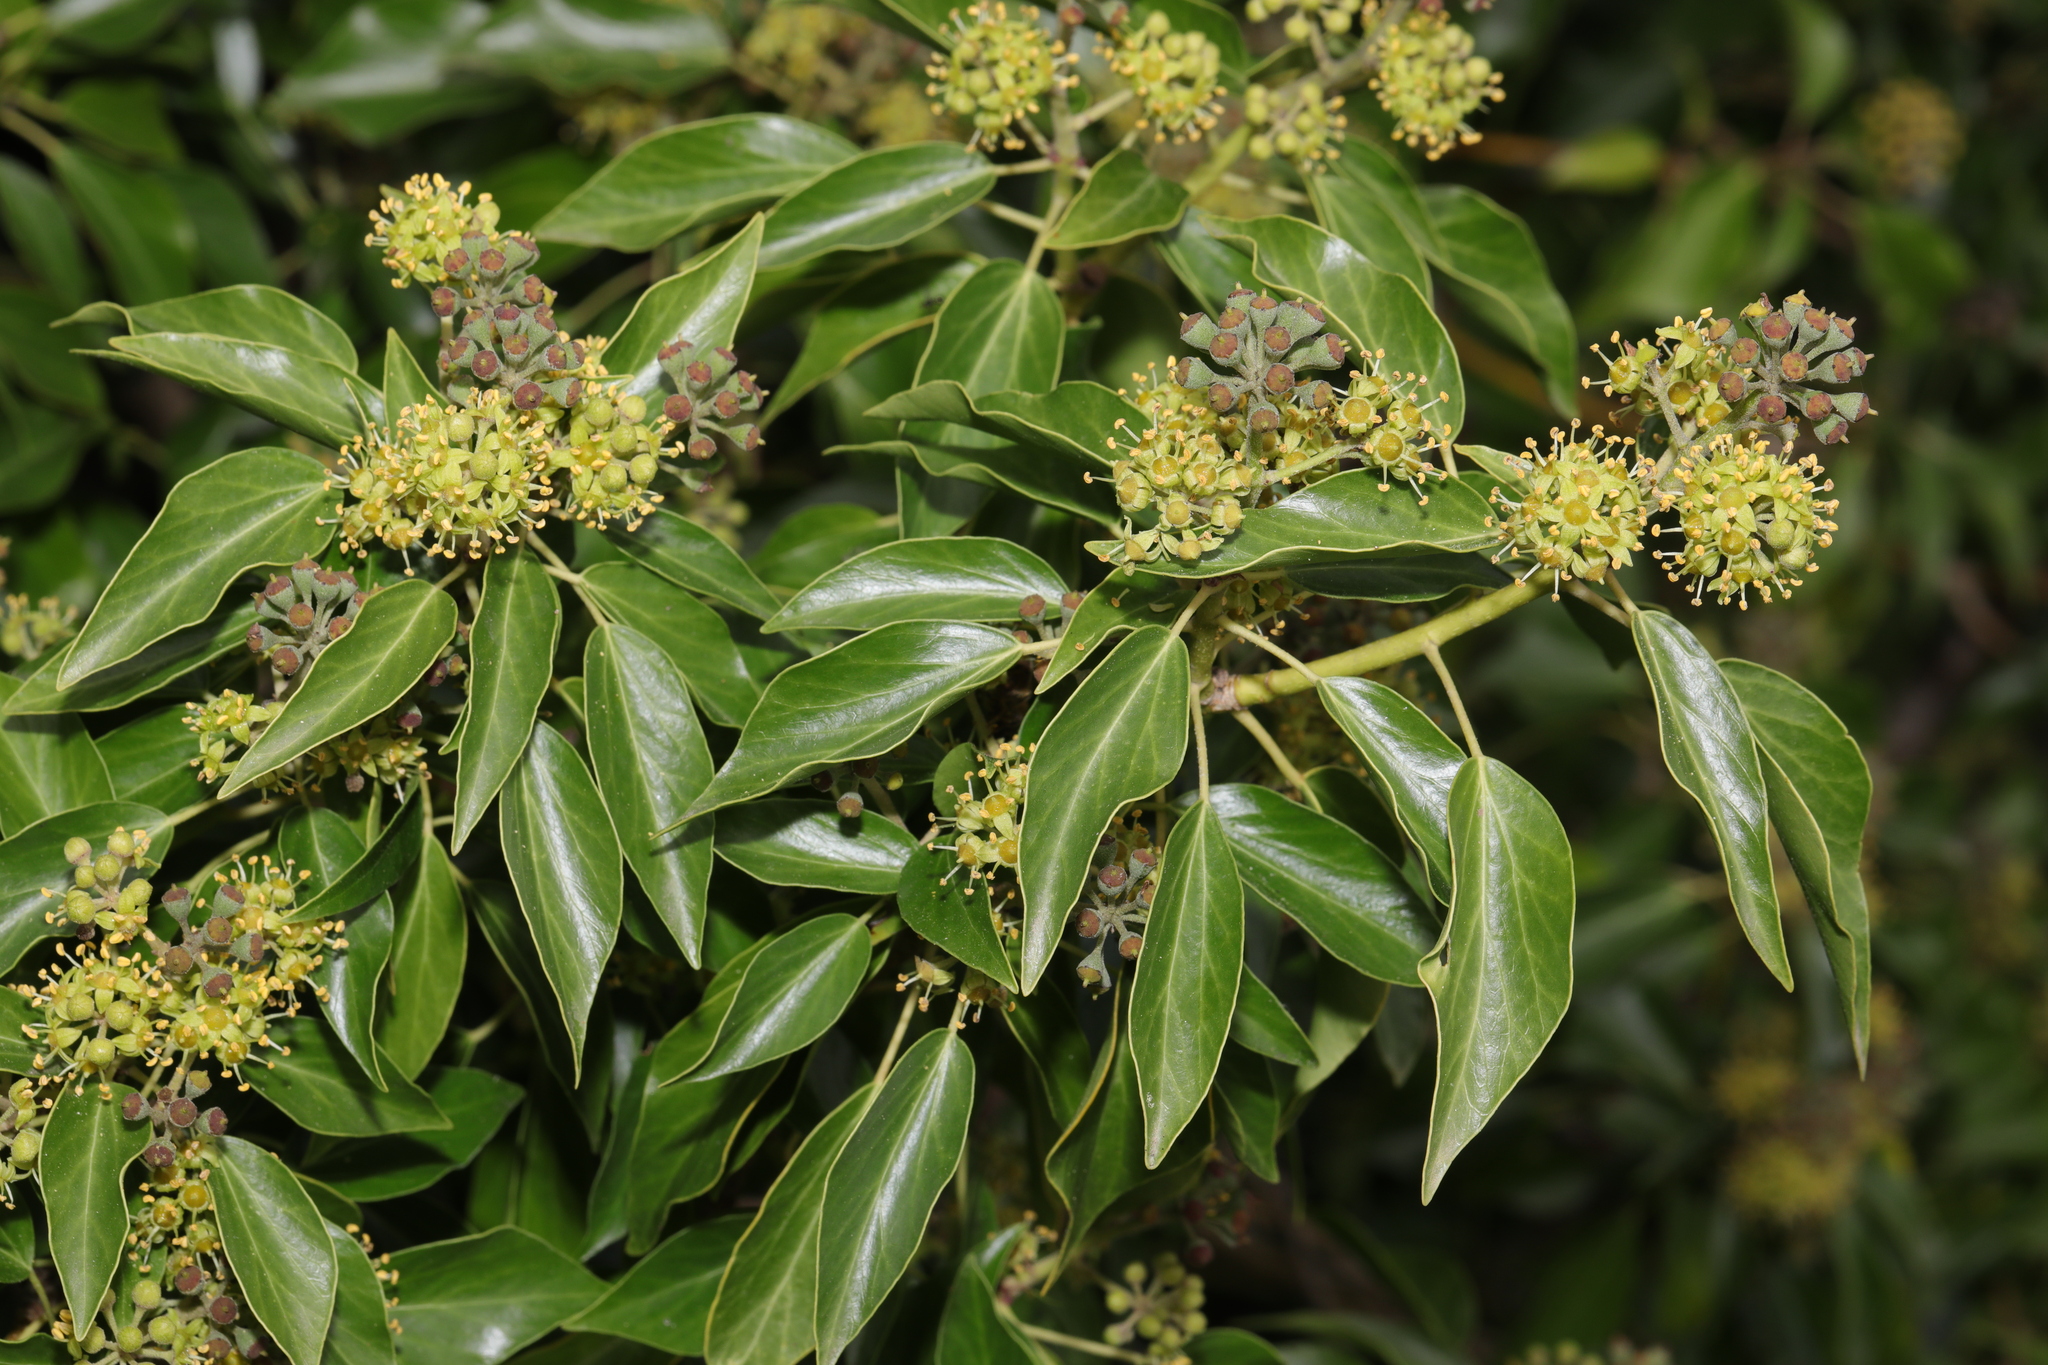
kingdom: Plantae
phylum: Tracheophyta
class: Magnoliopsida
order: Apiales
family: Araliaceae
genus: Hedera
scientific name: Hedera helix
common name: Ivy
